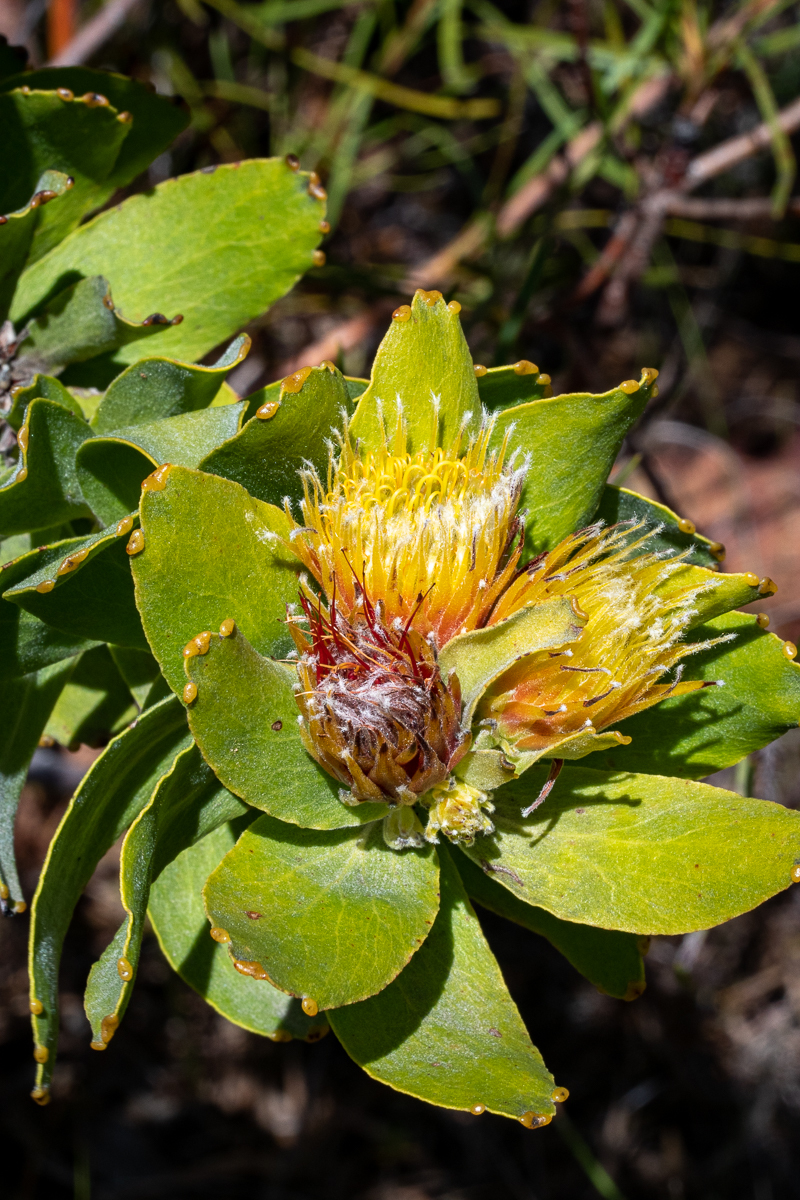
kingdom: Plantae
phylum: Tracheophyta
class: Magnoliopsida
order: Proteales
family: Proteaceae
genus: Leucospermum
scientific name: Leucospermum oleifolium
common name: Matches
